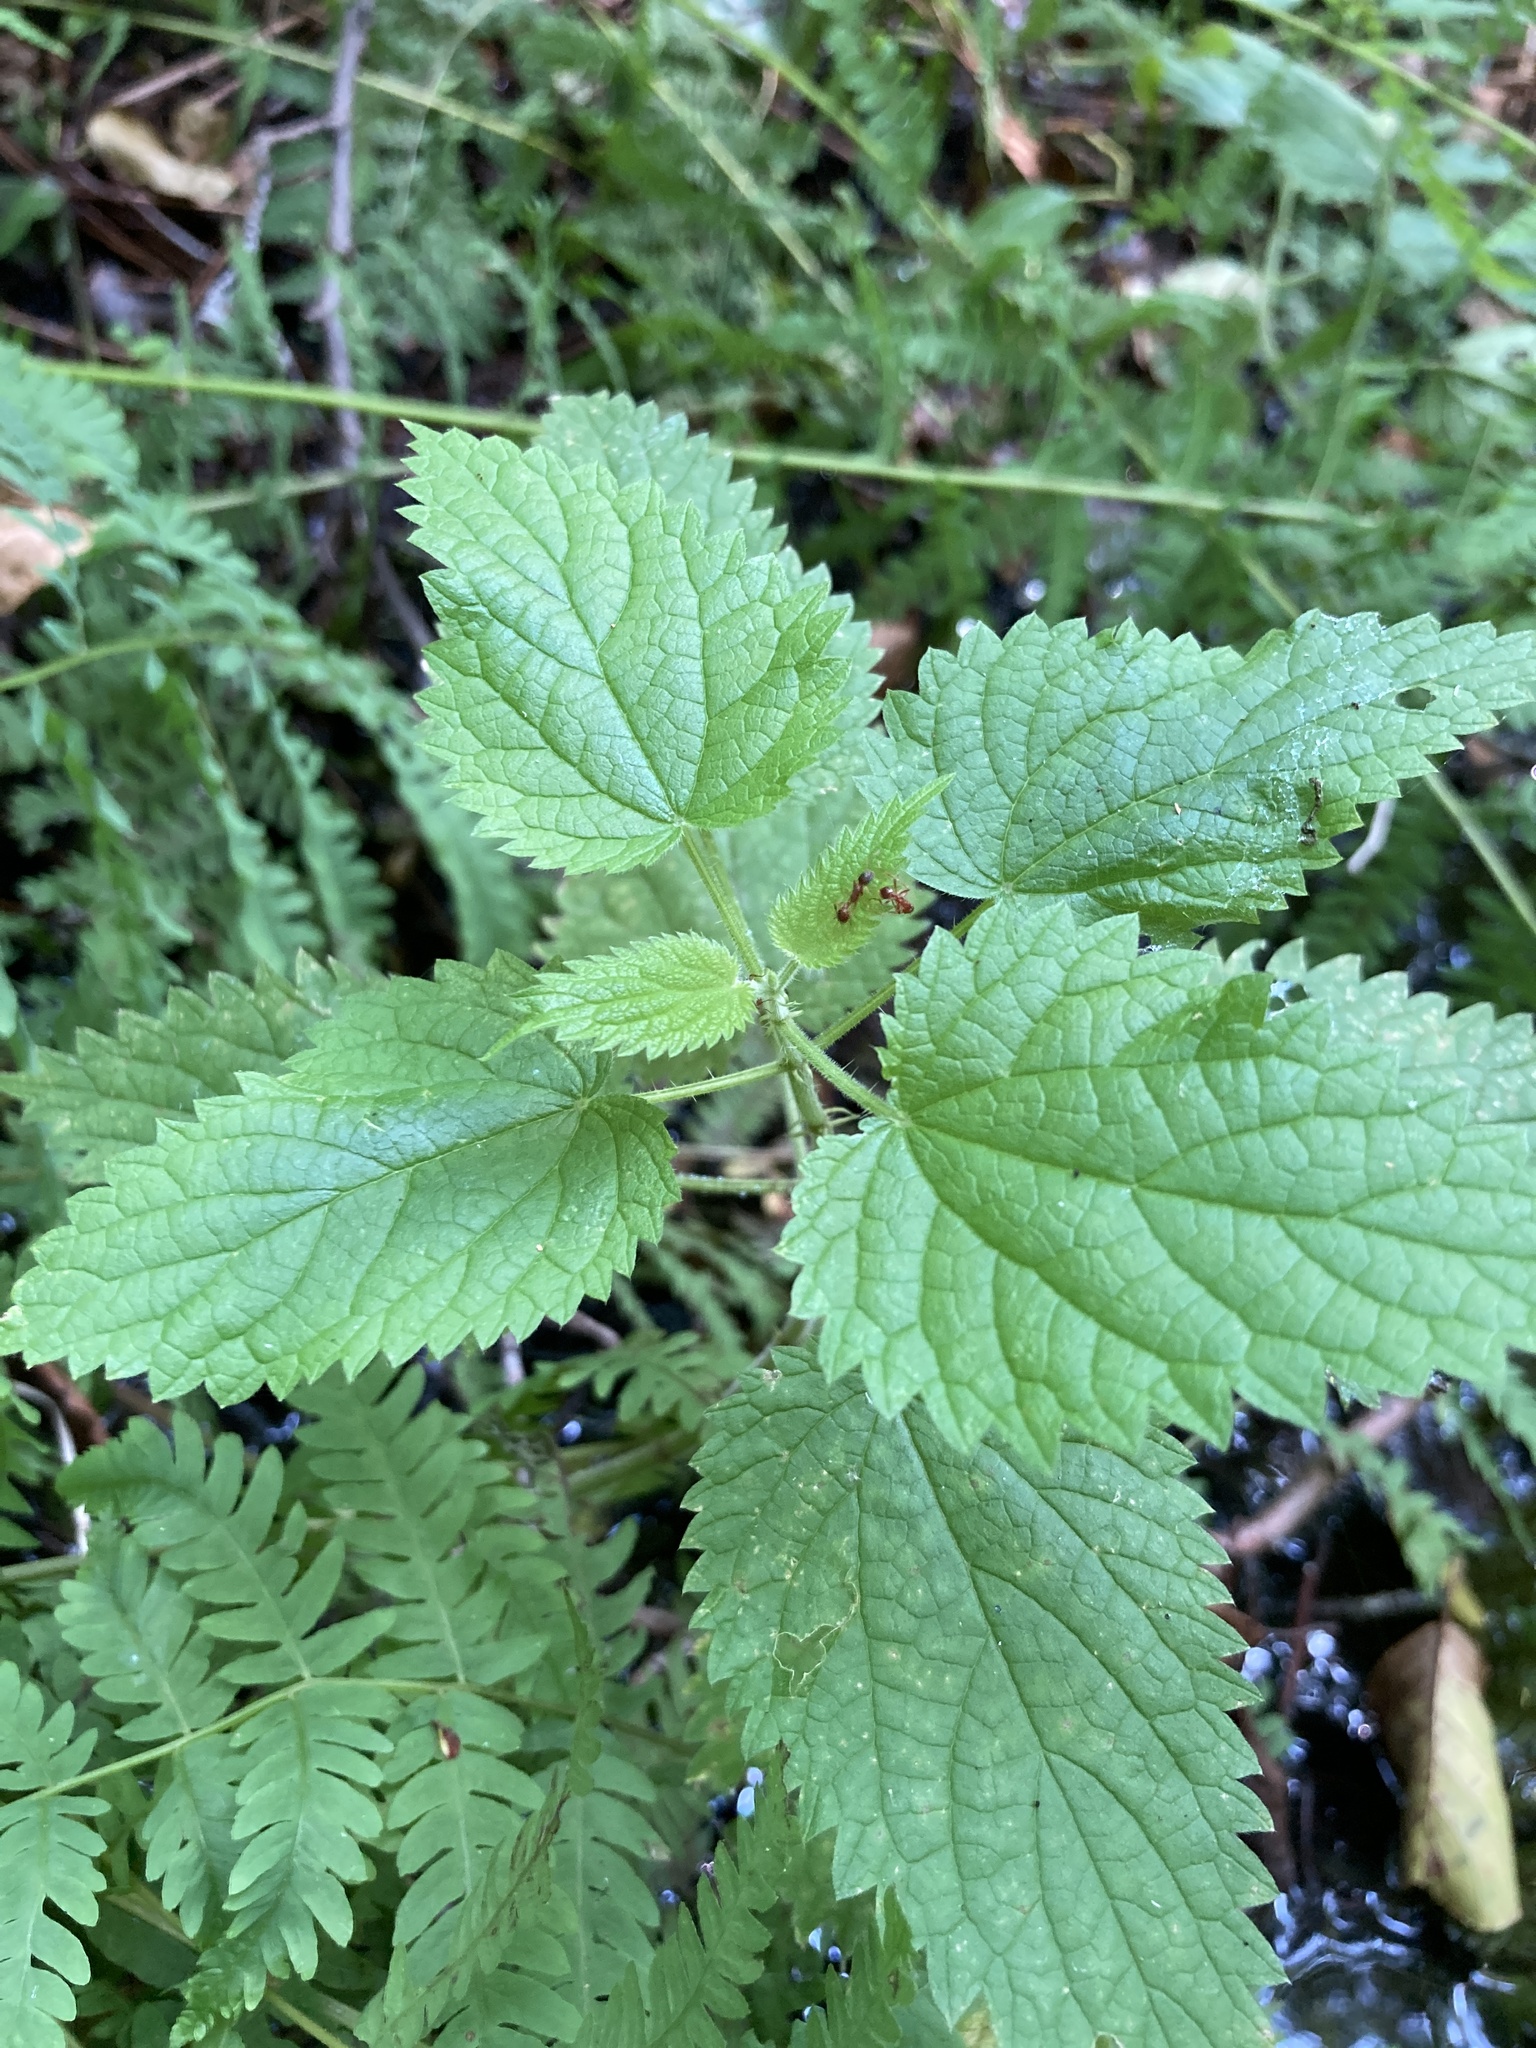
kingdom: Plantae
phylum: Tracheophyta
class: Magnoliopsida
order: Rosales
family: Urticaceae
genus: Urtica
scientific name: Urtica dioica
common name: Common nettle
